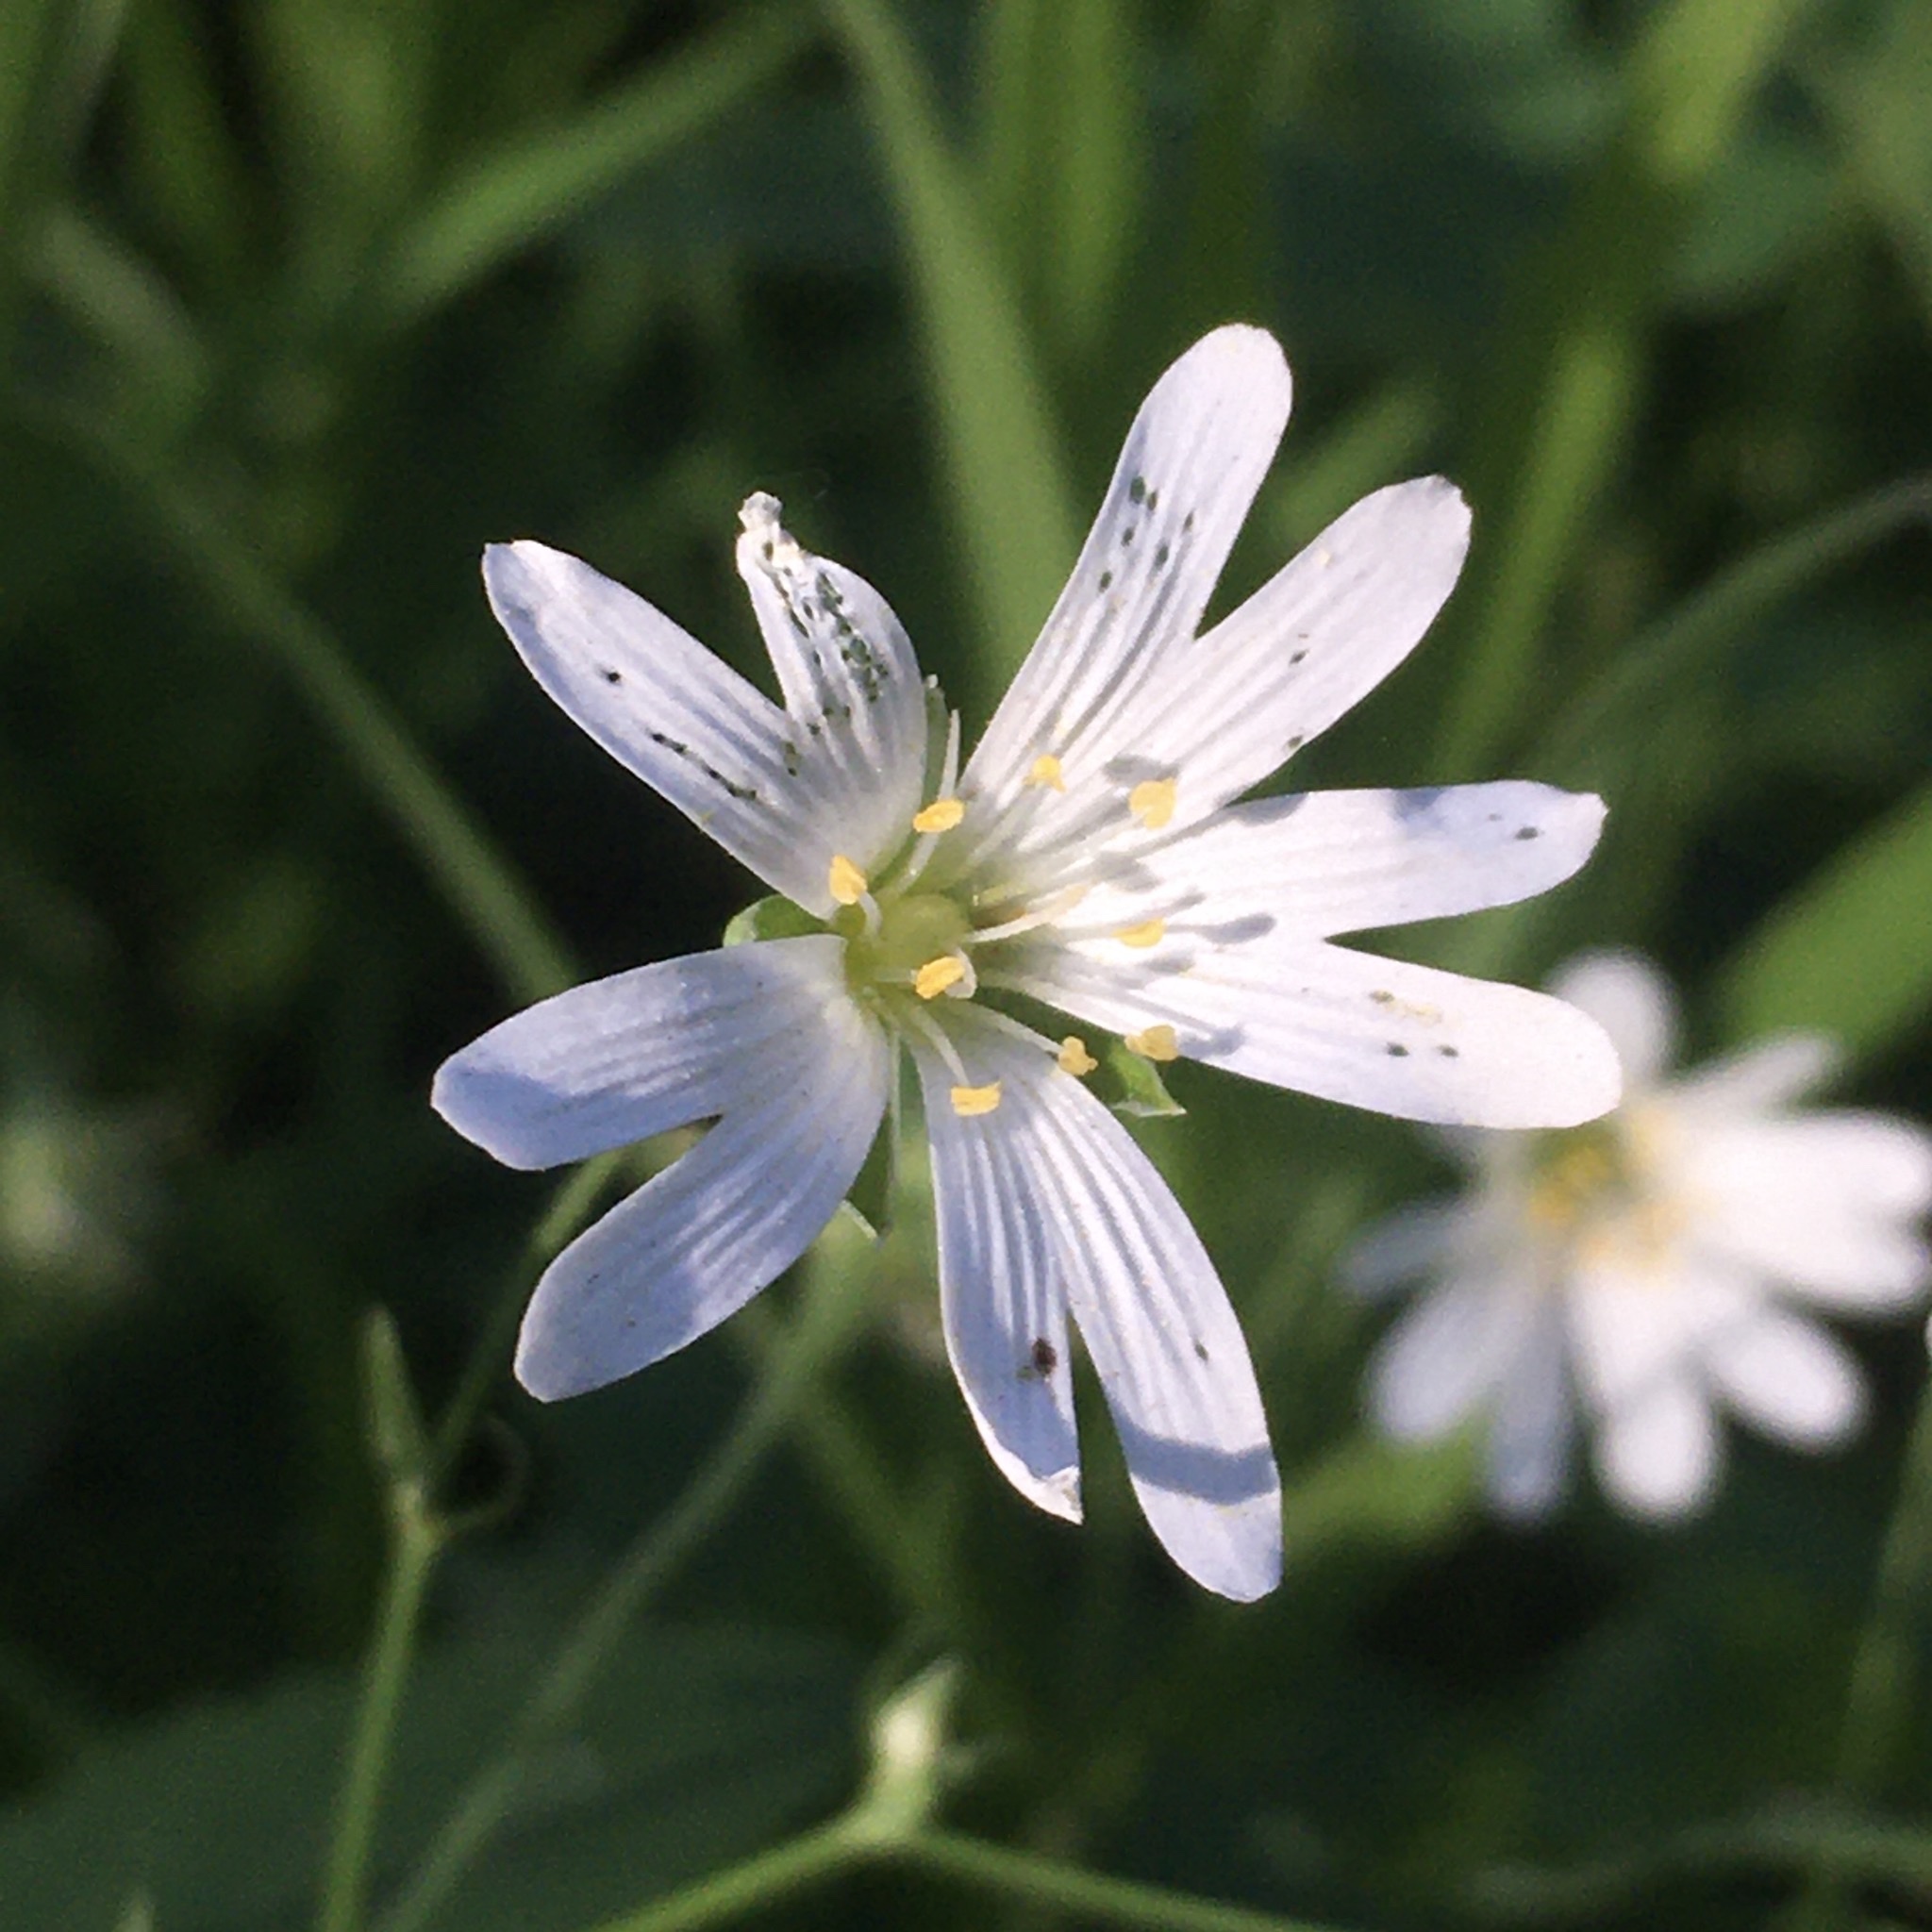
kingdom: Plantae
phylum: Tracheophyta
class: Magnoliopsida
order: Caryophyllales
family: Caryophyllaceae
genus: Rabelera
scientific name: Rabelera holostea
